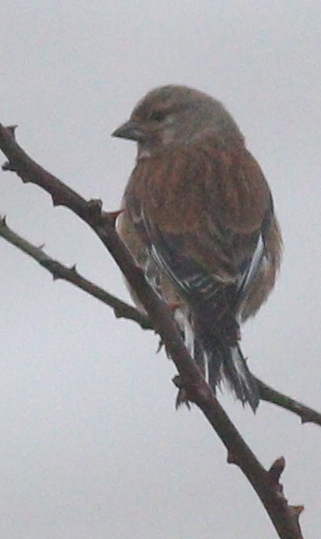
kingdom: Animalia
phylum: Chordata
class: Aves
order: Passeriformes
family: Fringillidae
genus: Linaria
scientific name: Linaria cannabina
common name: Common linnet
